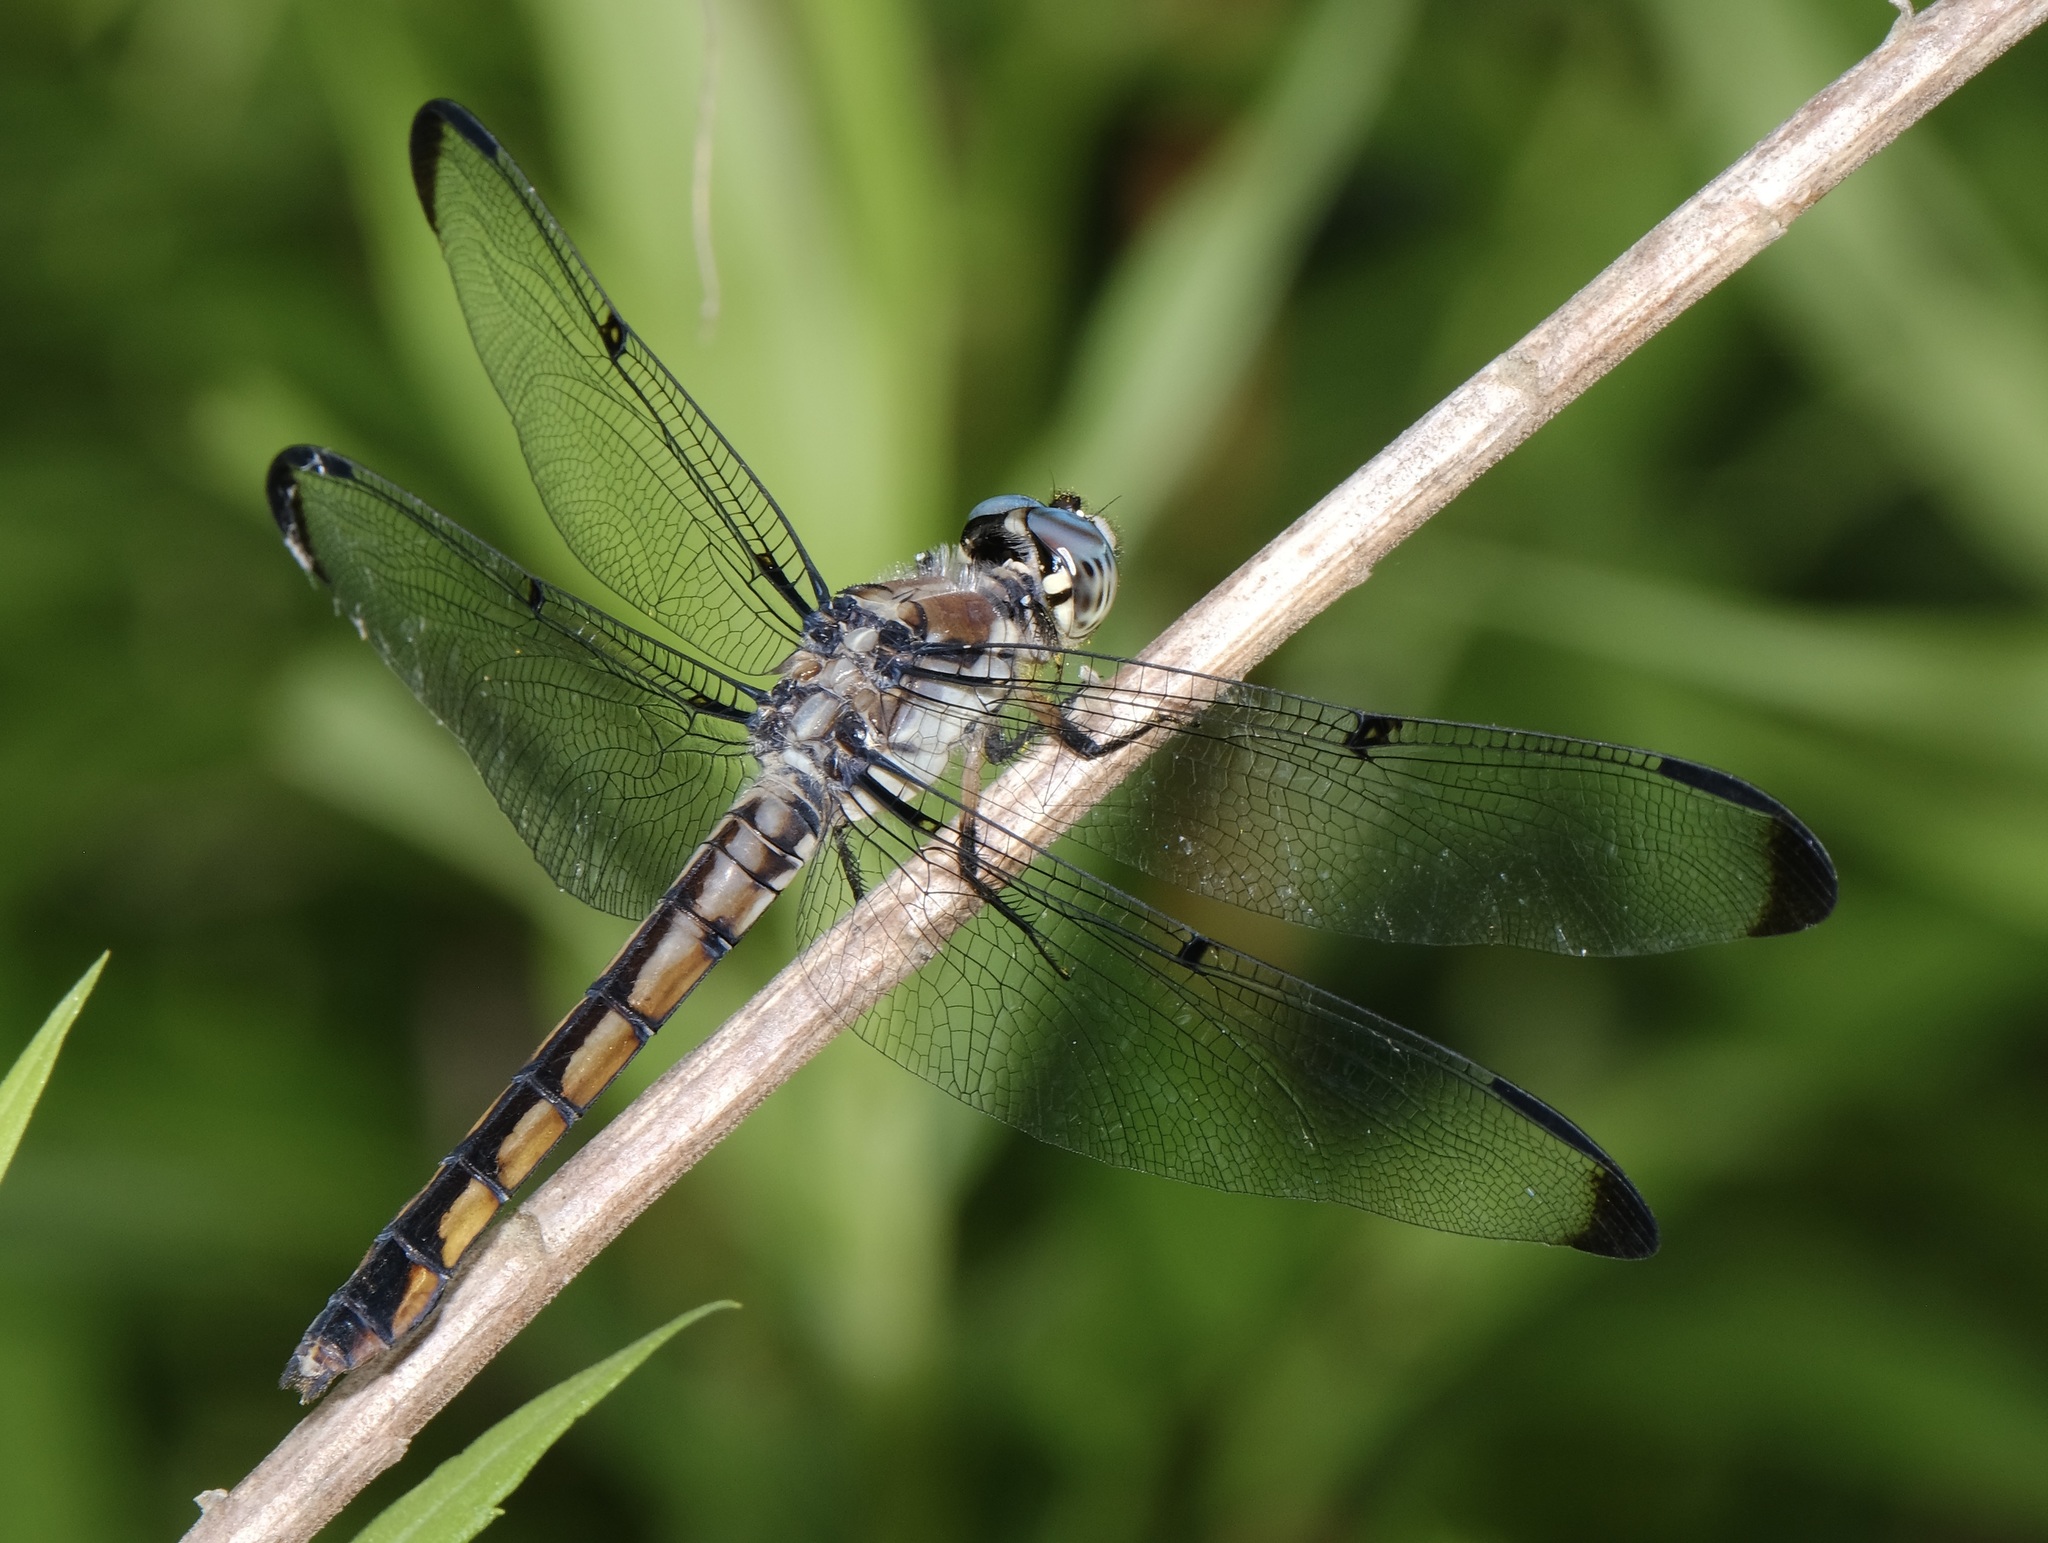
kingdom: Animalia
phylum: Arthropoda
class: Insecta
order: Odonata
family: Libellulidae
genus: Libellula
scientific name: Libellula vibrans
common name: Great blue skimmer
